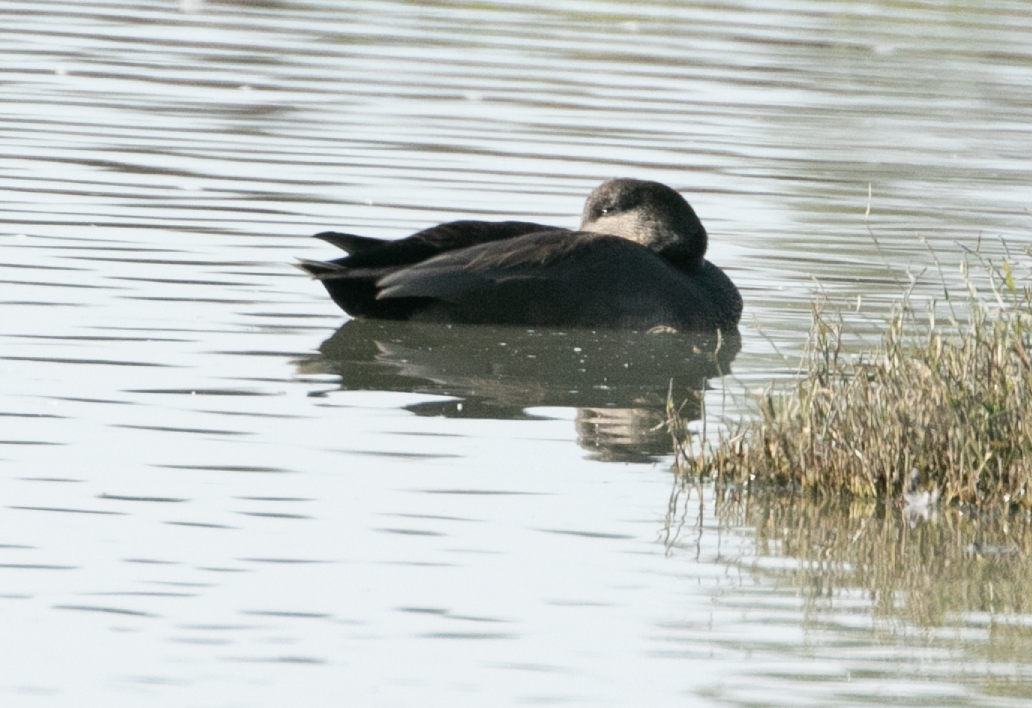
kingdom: Animalia
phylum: Chordata
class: Aves
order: Anseriformes
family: Anatidae
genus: Mareca
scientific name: Mareca strepera
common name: Gadwall
